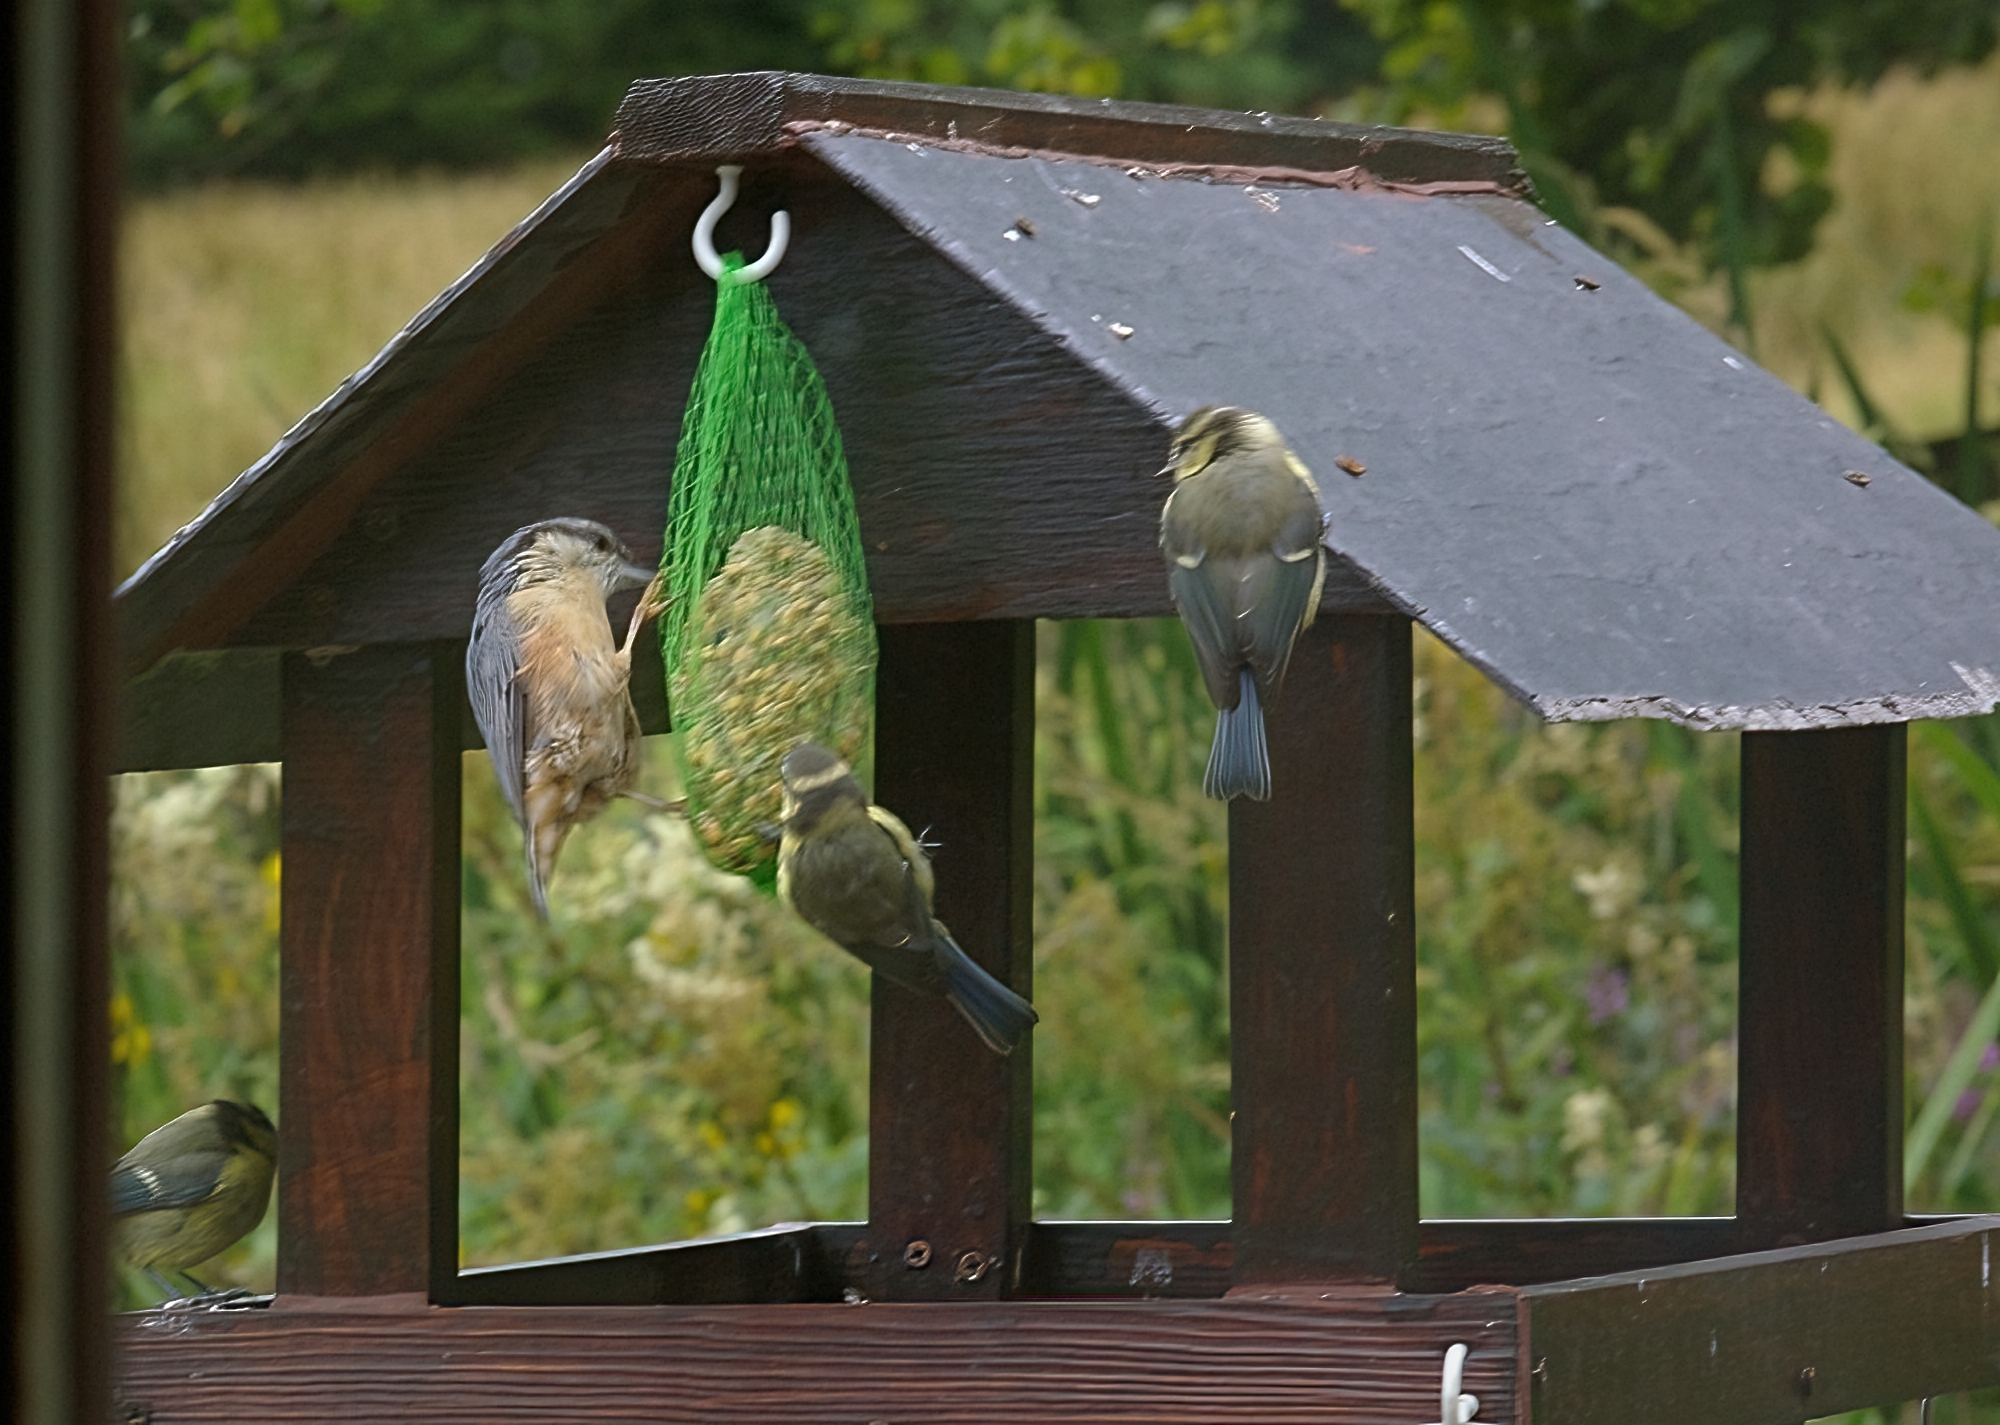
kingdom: Animalia
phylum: Chordata
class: Aves
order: Passeriformes
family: Paridae
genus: Cyanistes
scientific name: Cyanistes caeruleus
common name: Eurasian blue tit
